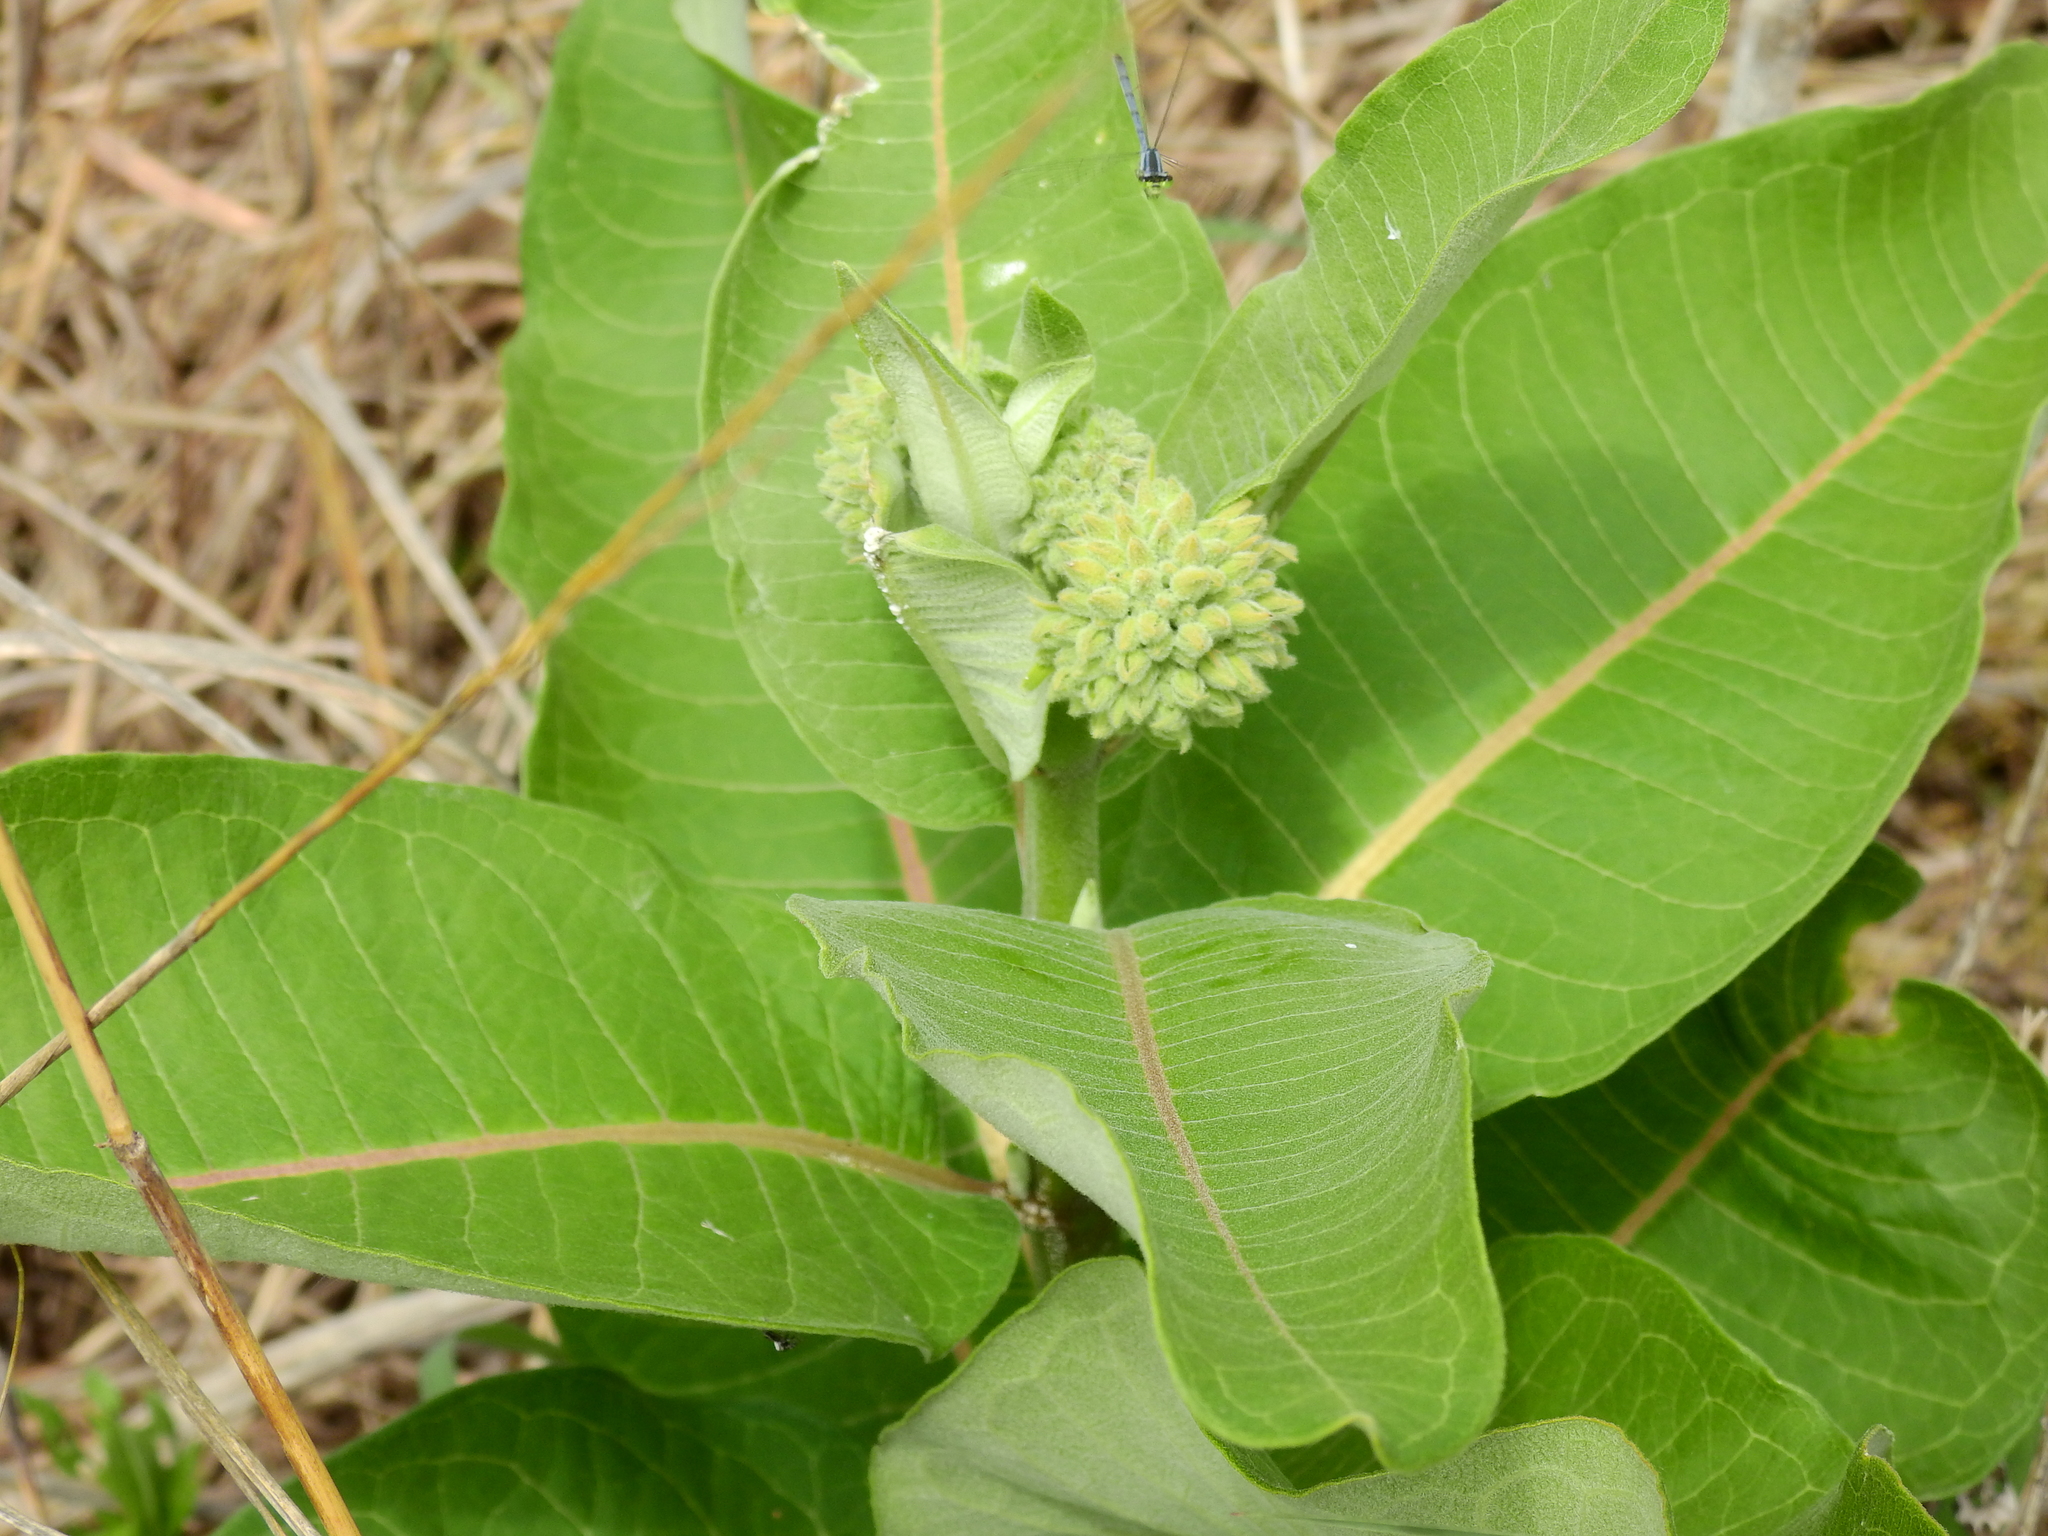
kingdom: Plantae
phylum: Tracheophyta
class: Magnoliopsida
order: Gentianales
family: Apocynaceae
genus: Asclepias
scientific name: Asclepias syriaca
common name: Common milkweed
